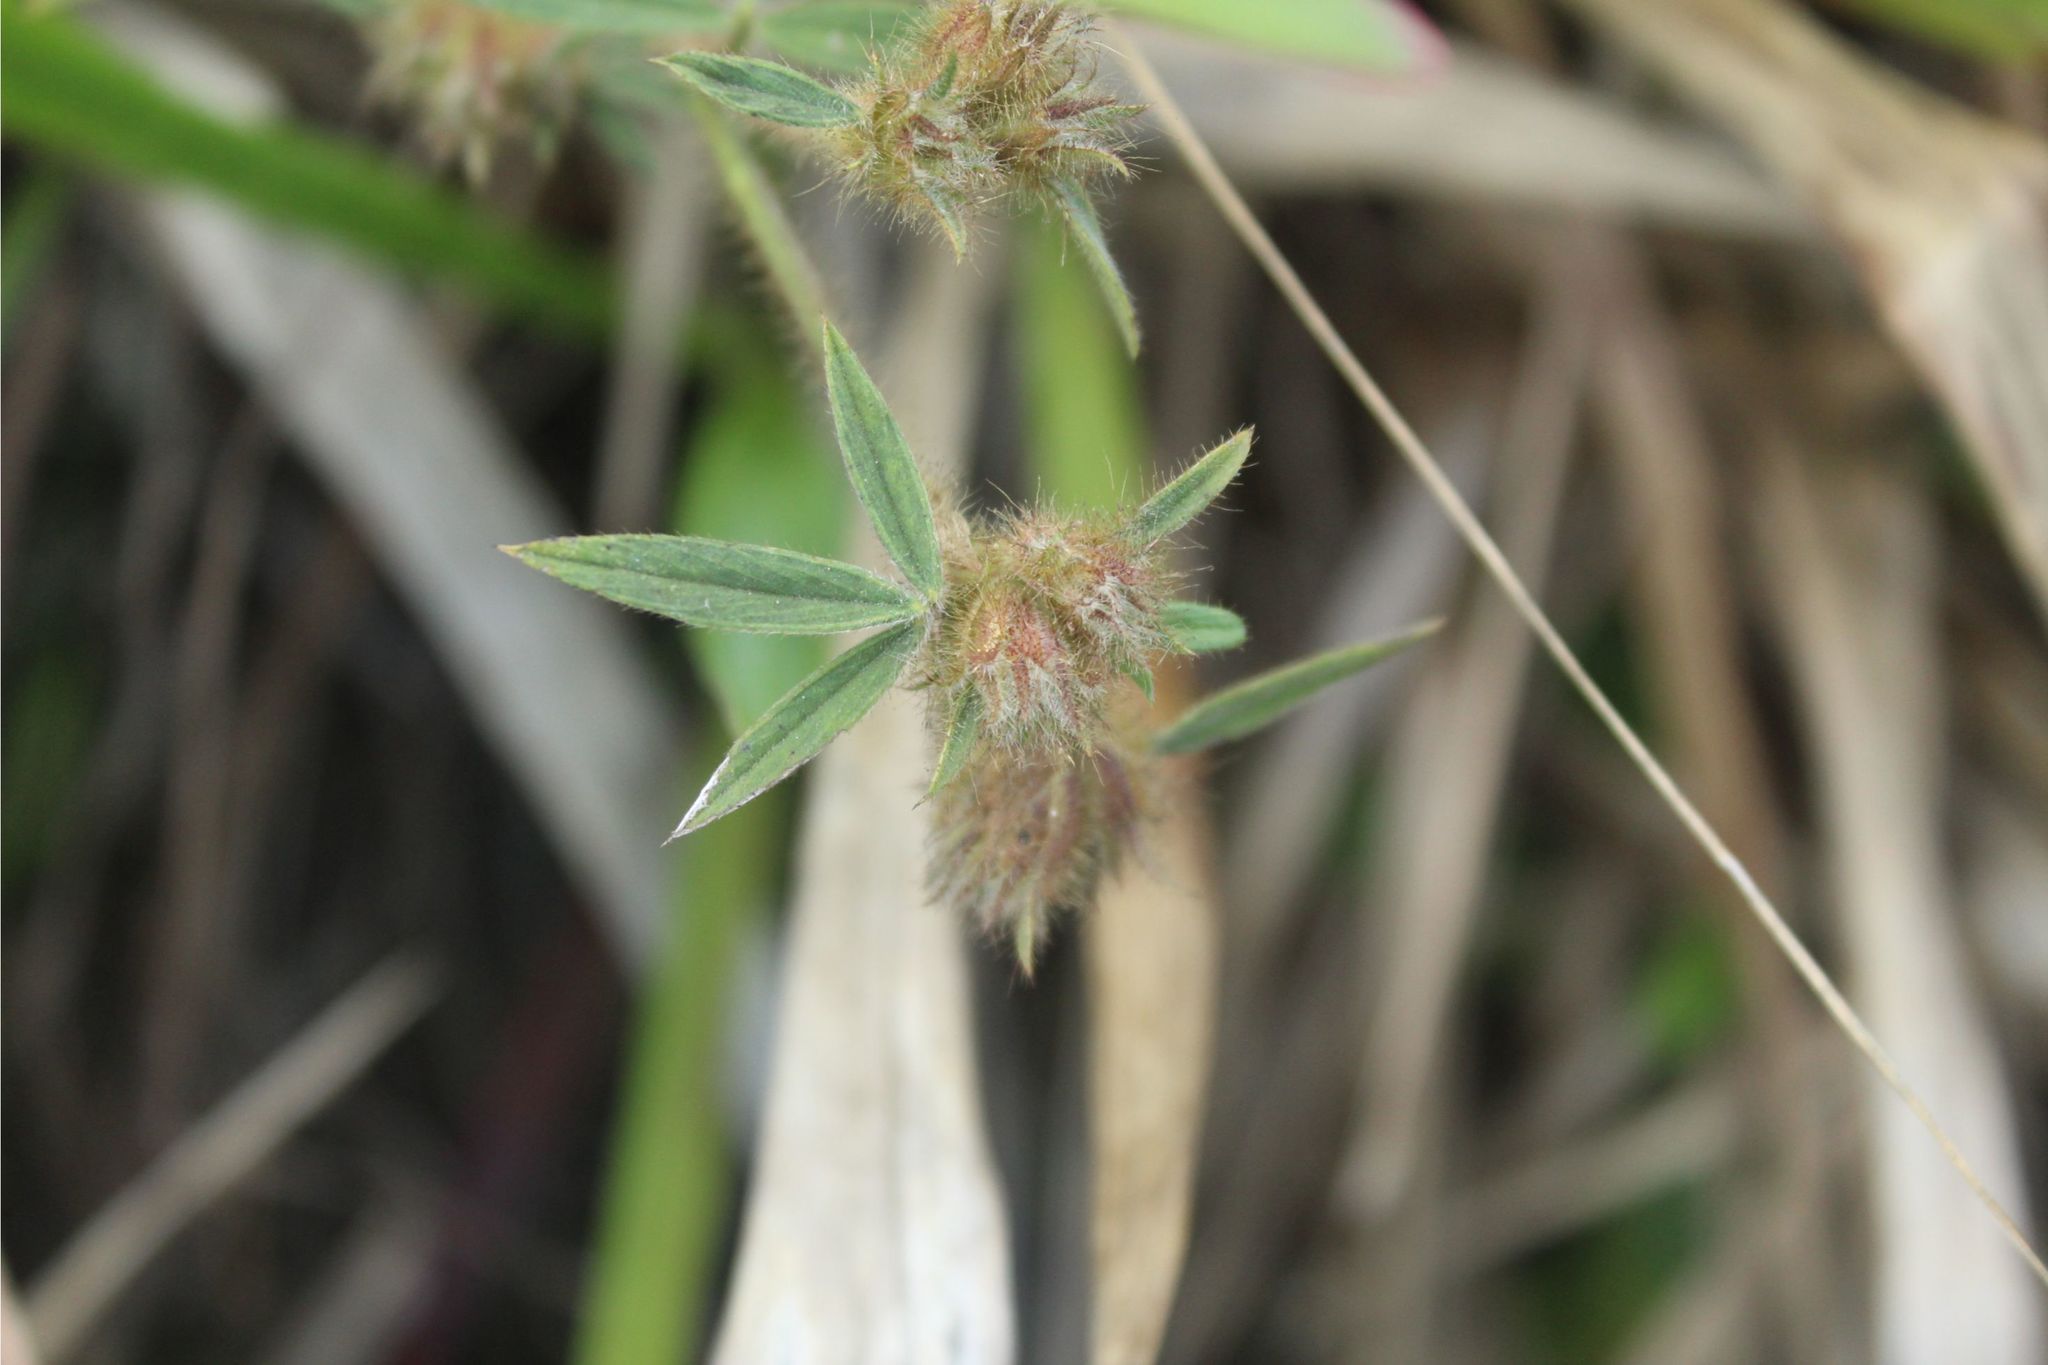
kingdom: Plantae
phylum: Tracheophyta
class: Magnoliopsida
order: Fabales
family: Fabaceae
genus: Stylosanthes
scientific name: Stylosanthes guianensis
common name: Pencil flower
